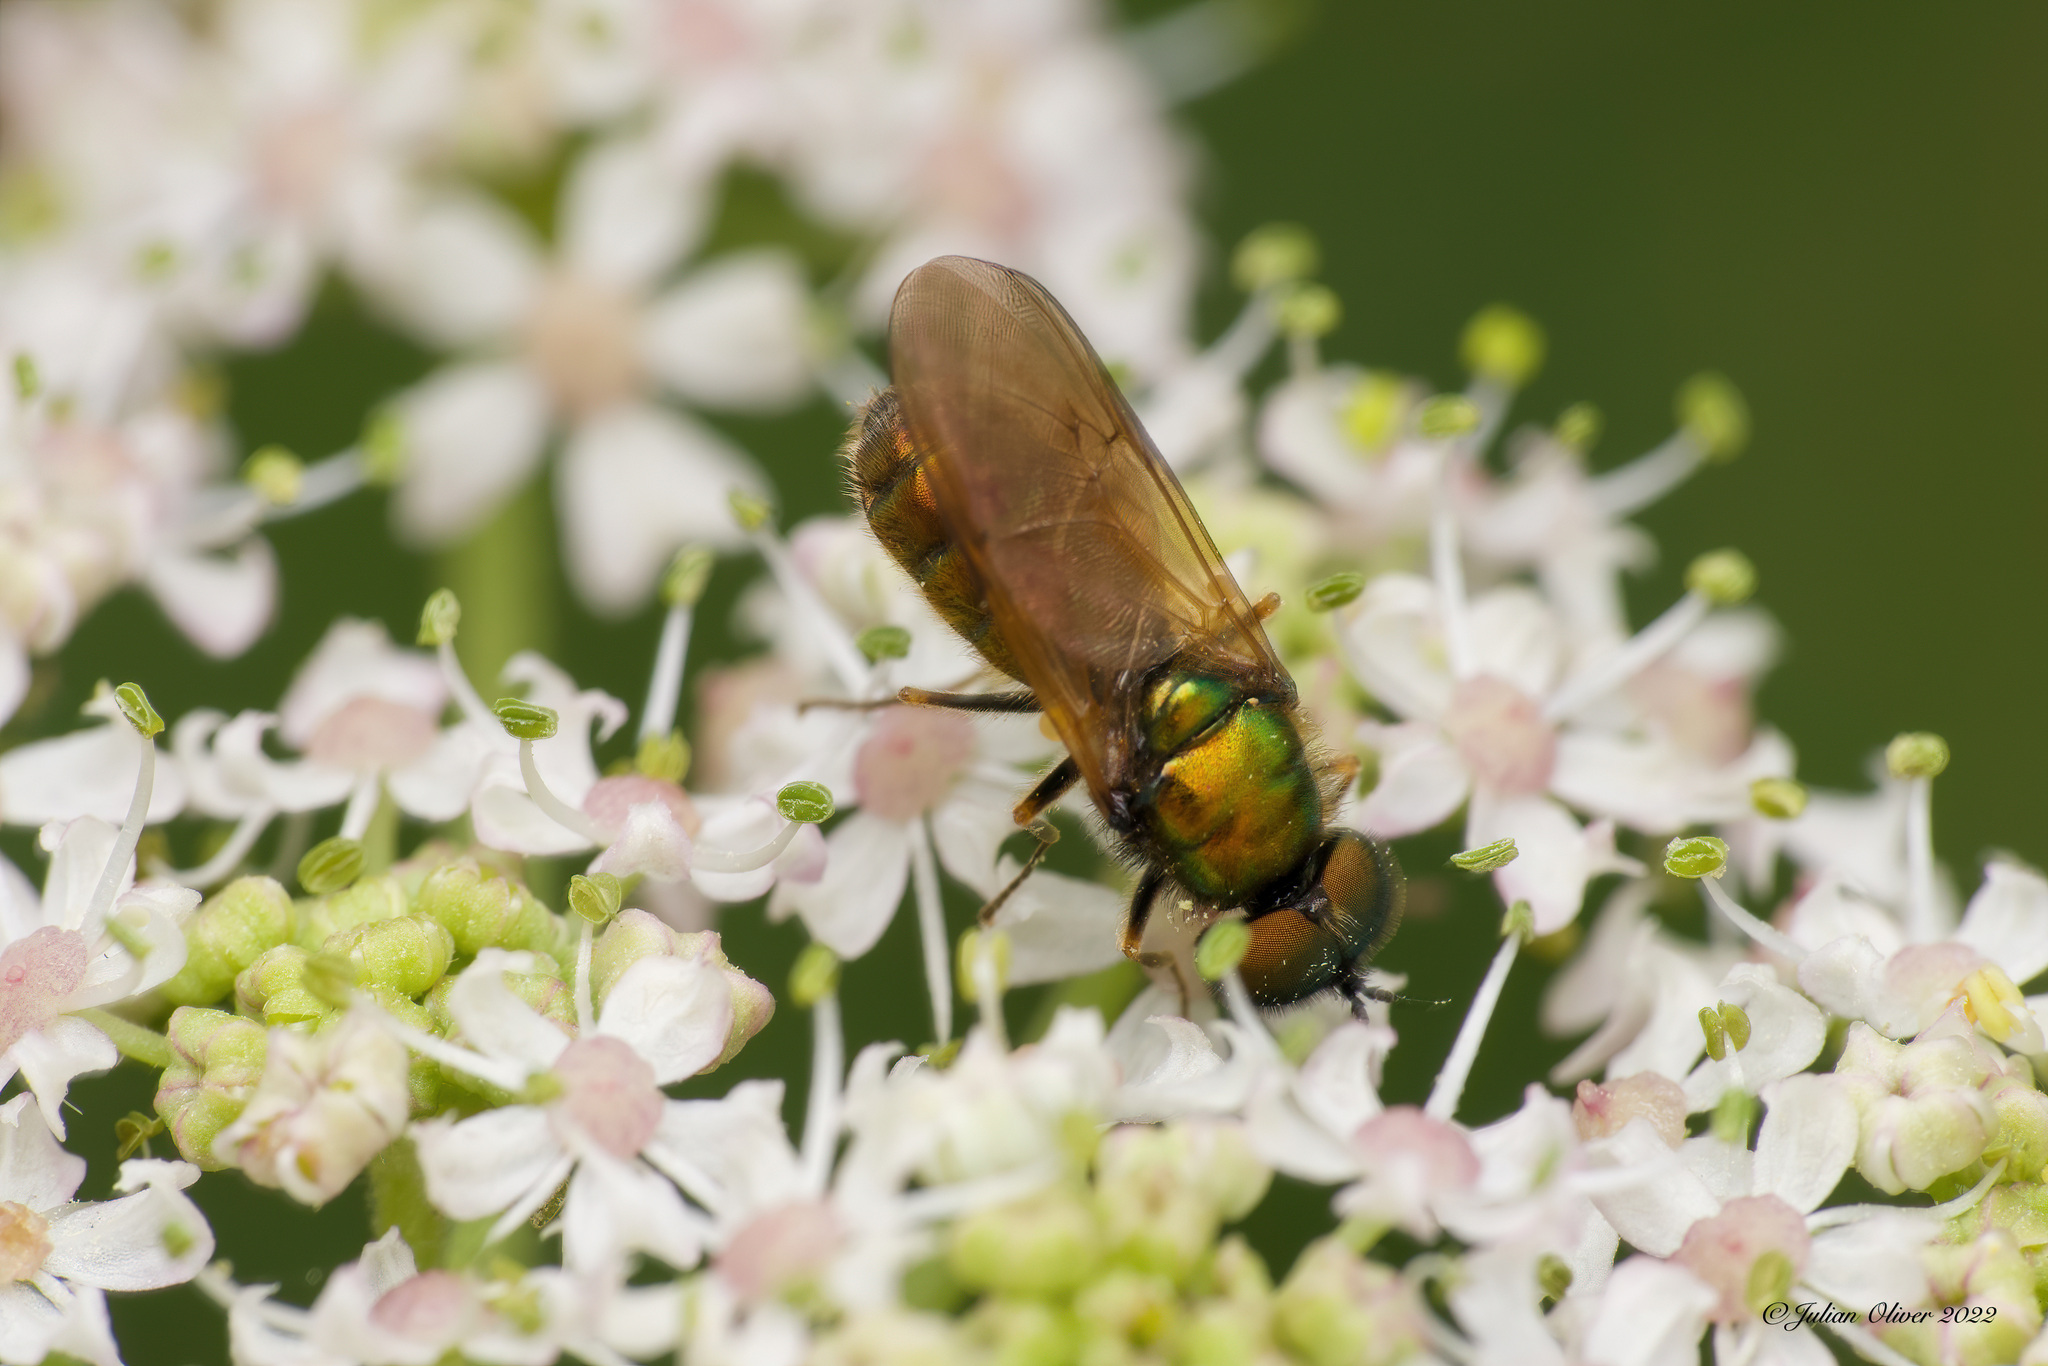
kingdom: Animalia
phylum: Arthropoda
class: Insecta
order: Diptera
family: Stratiomyidae
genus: Chloromyia
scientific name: Chloromyia formosa
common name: Soldier fly
